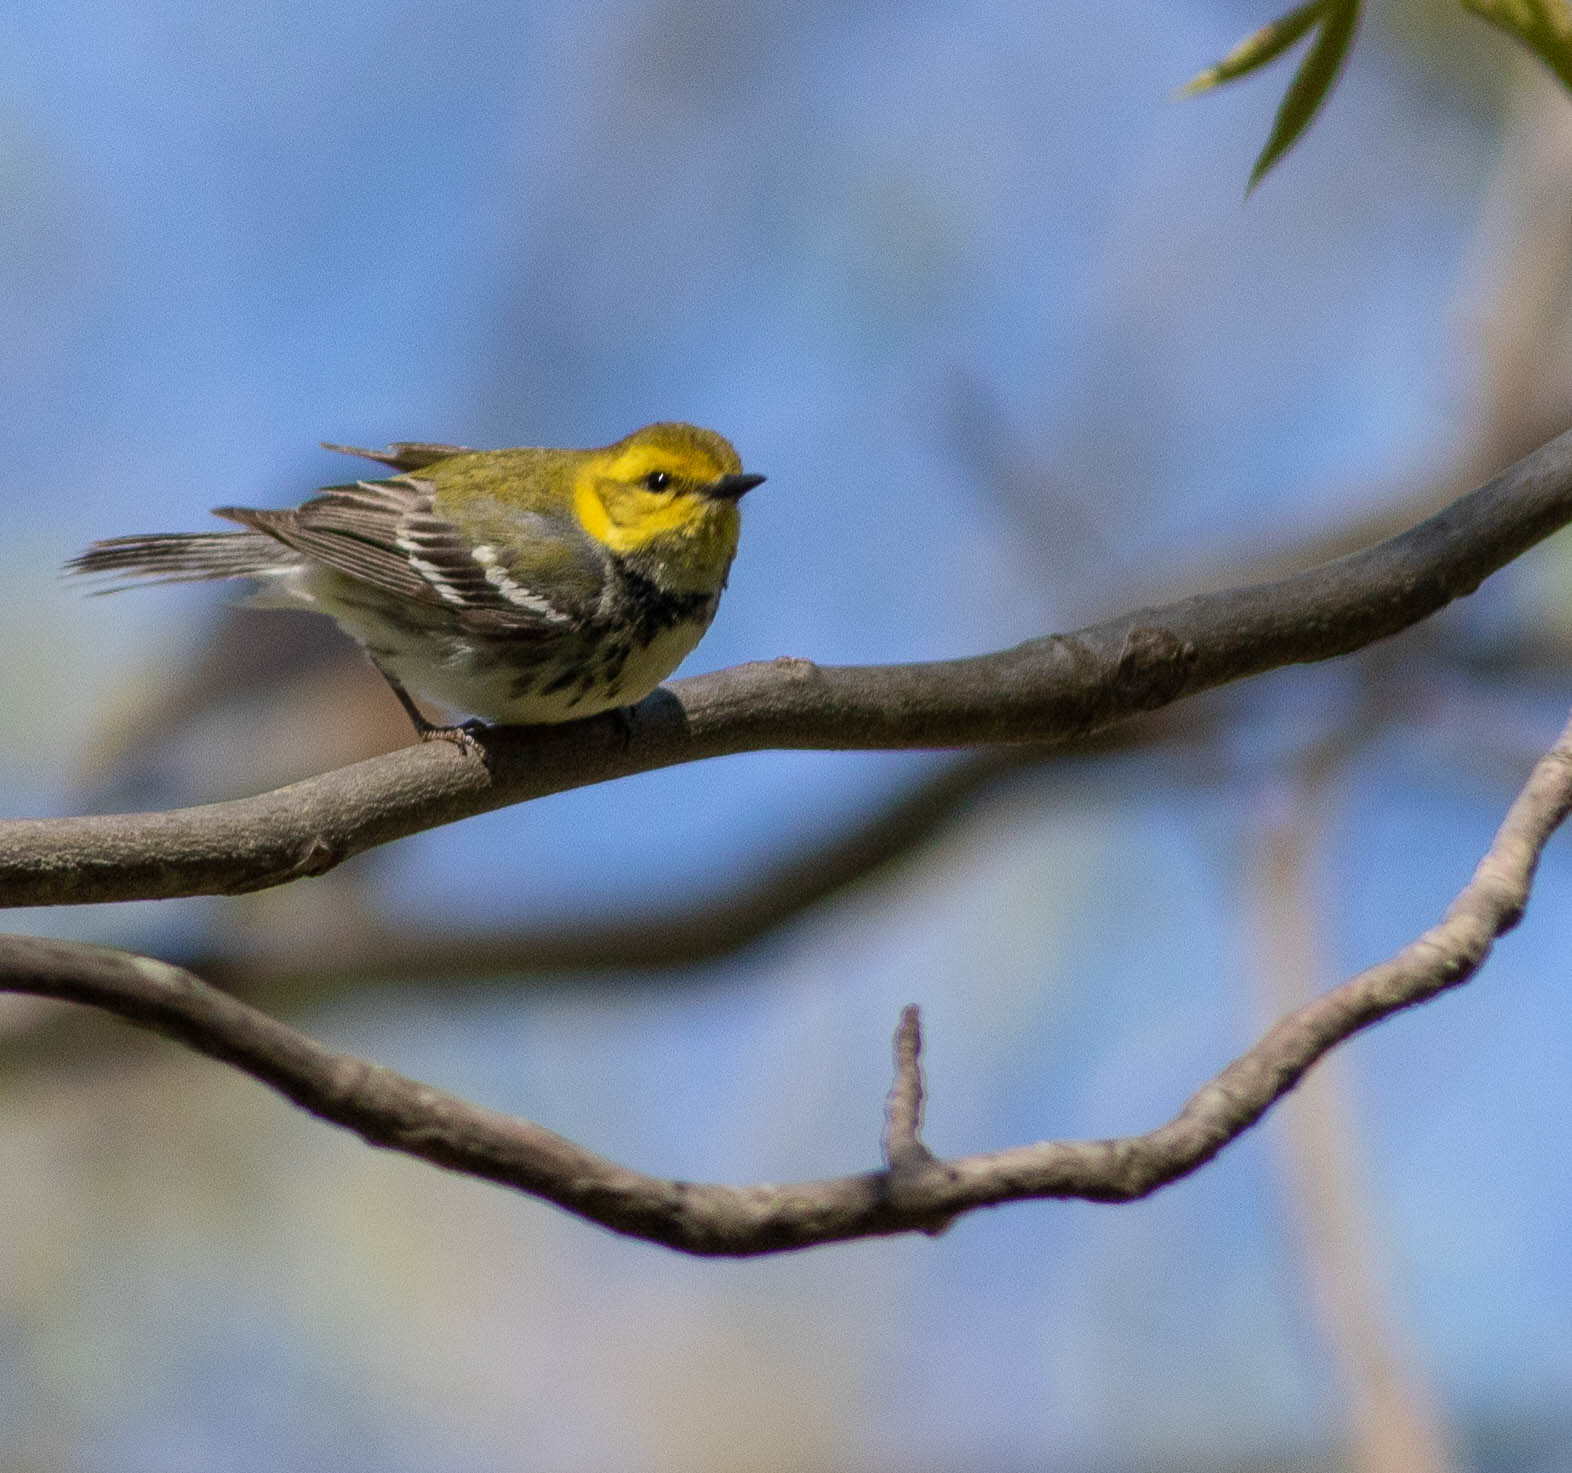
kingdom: Animalia
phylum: Chordata
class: Aves
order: Passeriformes
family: Parulidae
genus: Setophaga
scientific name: Setophaga virens
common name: Black-throated green warbler
